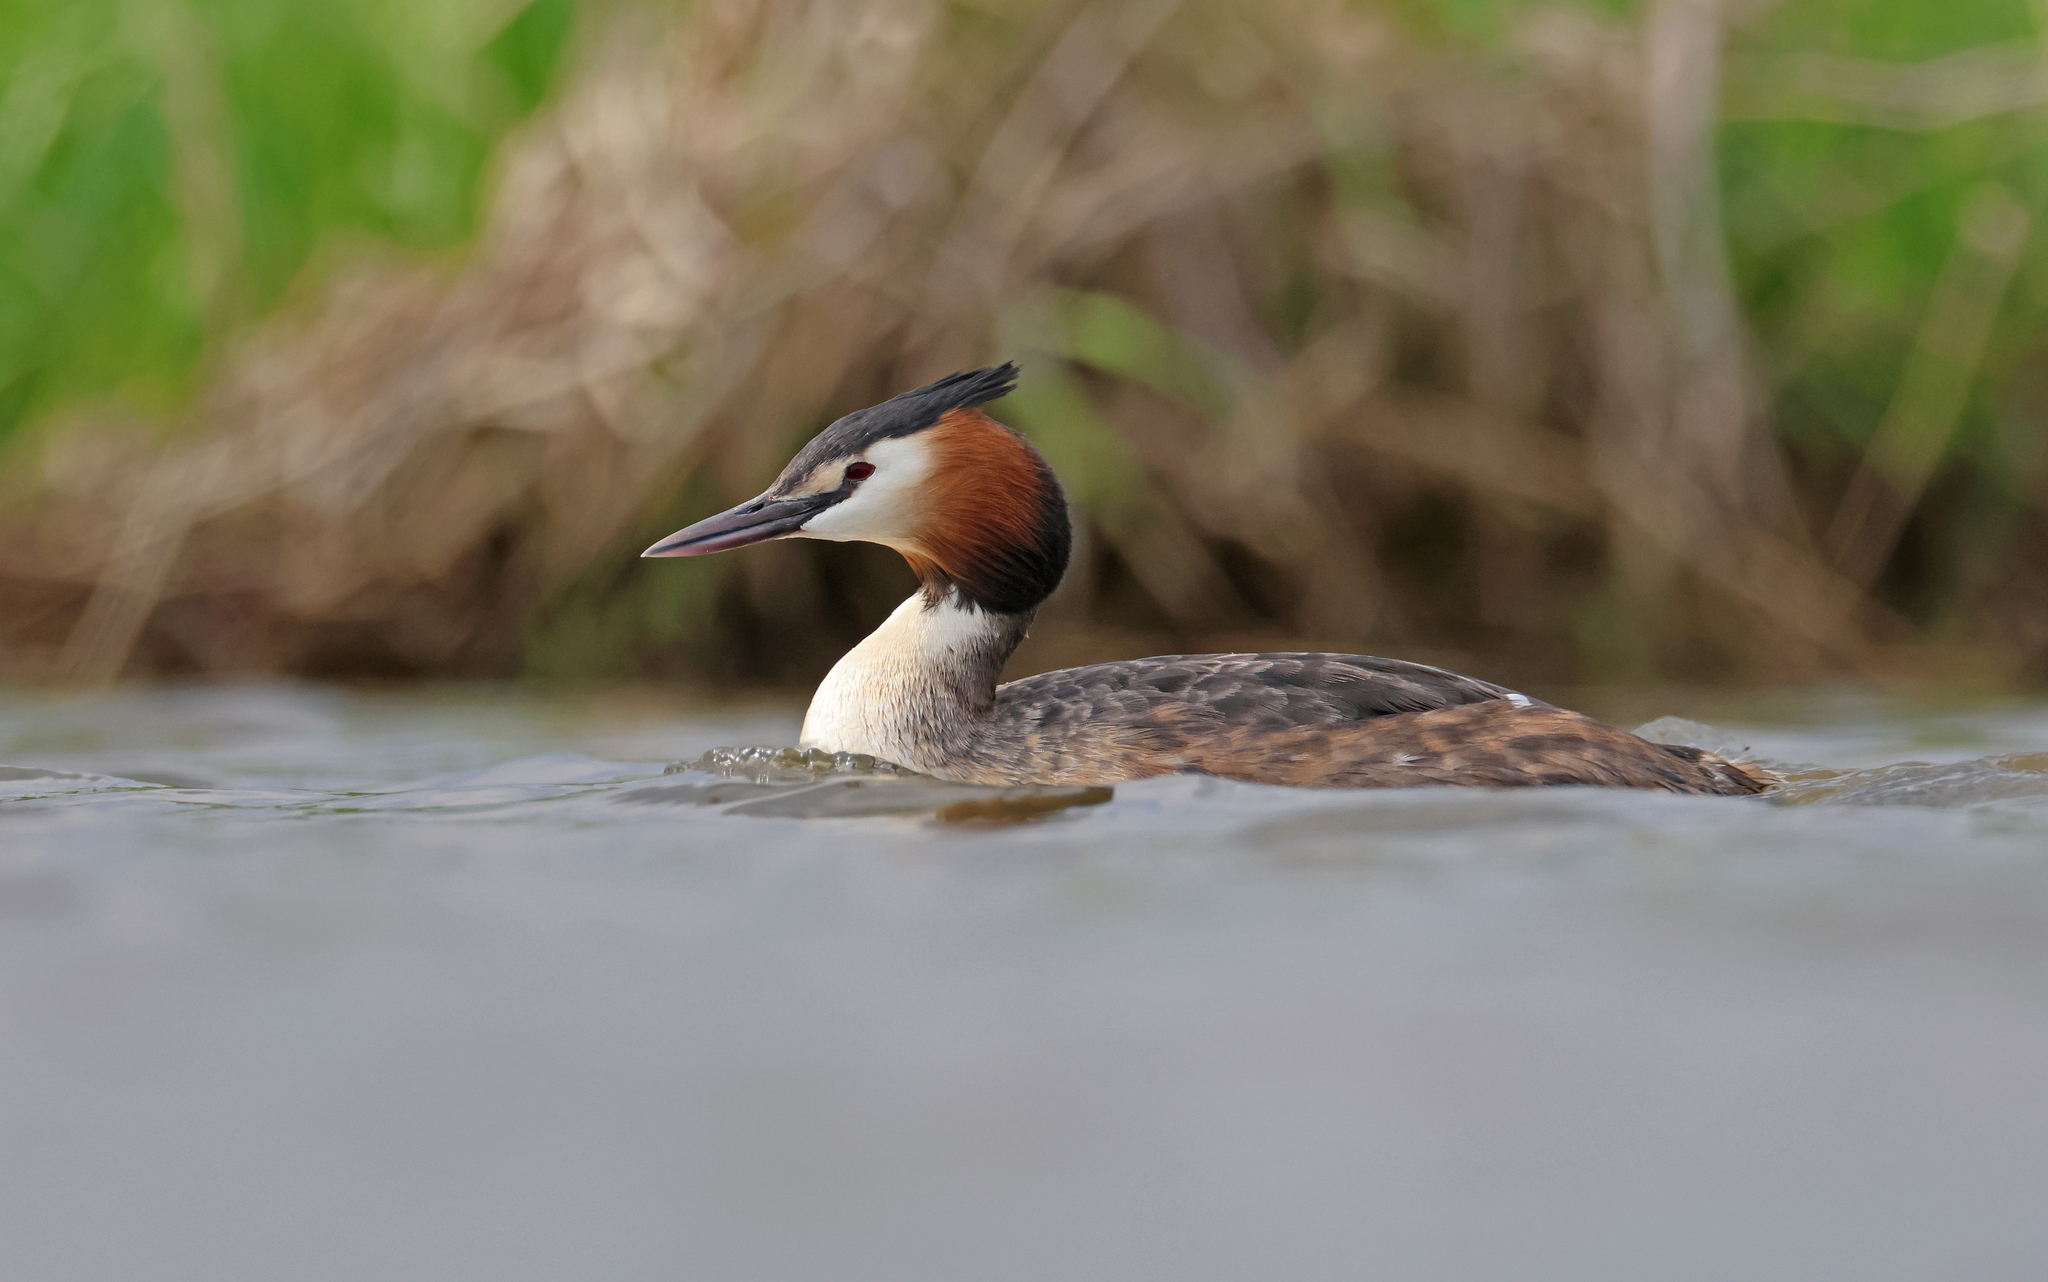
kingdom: Animalia
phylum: Chordata
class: Aves
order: Podicipediformes
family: Podicipedidae
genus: Podiceps
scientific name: Podiceps cristatus
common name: Great crested grebe
